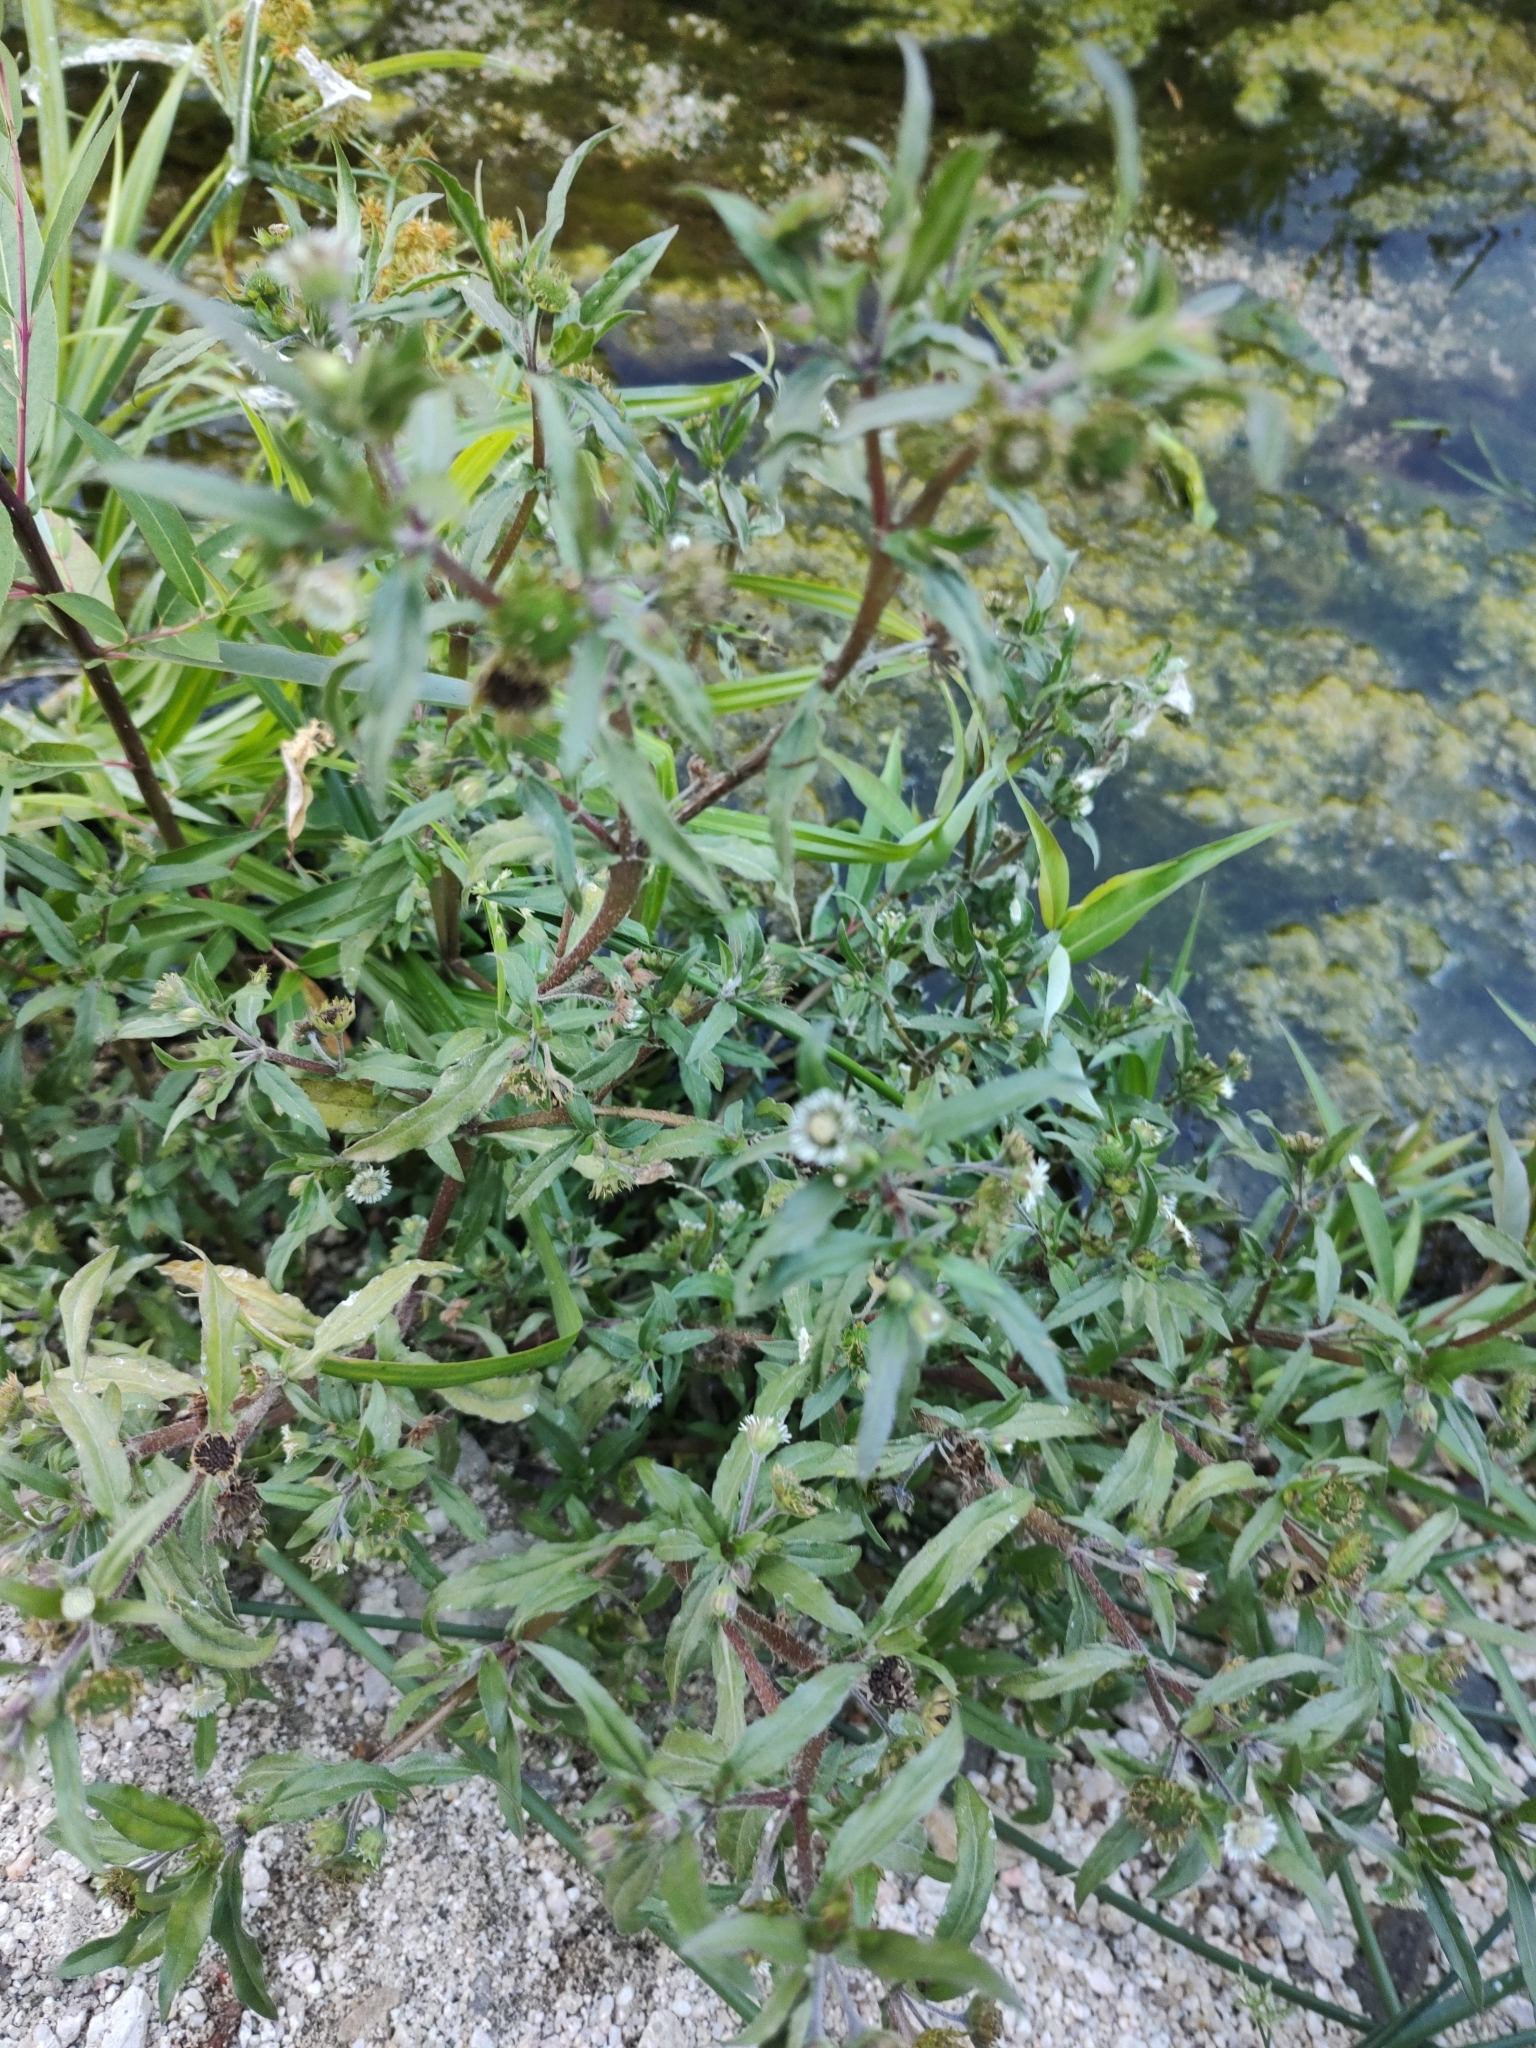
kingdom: Plantae
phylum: Tracheophyta
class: Magnoliopsida
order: Asterales
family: Asteraceae
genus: Eclipta
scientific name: Eclipta prostrata
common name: False daisy
